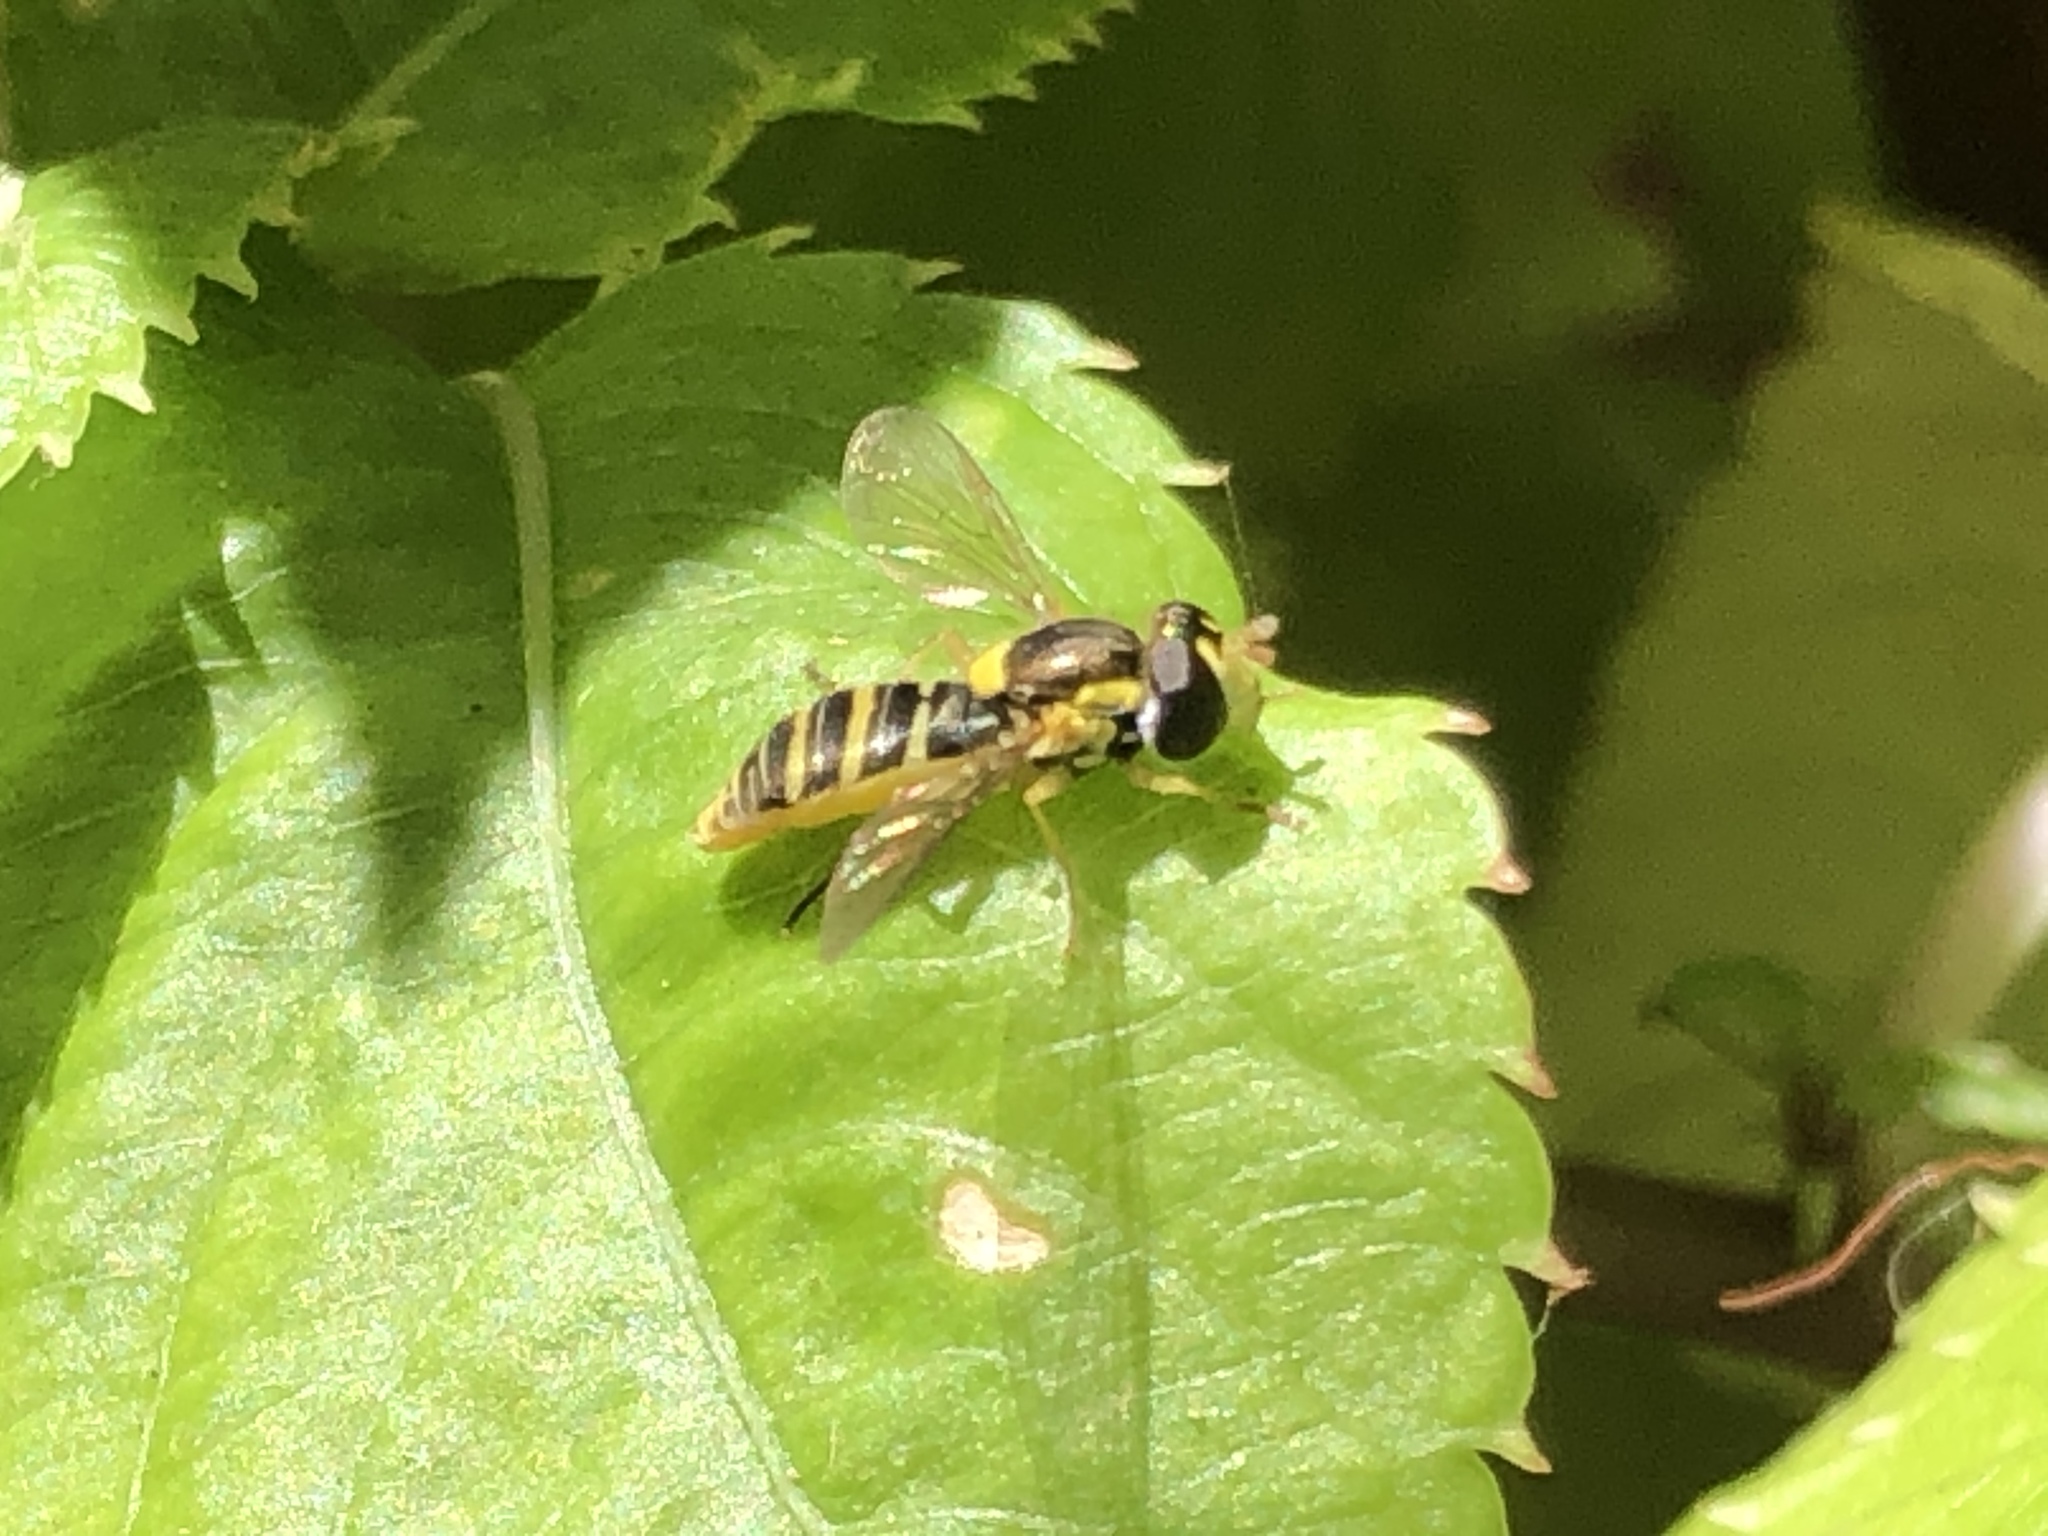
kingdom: Animalia
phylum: Arthropoda
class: Insecta
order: Diptera
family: Syrphidae
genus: Sphaerophoria
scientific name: Sphaerophoria sulphuripes
